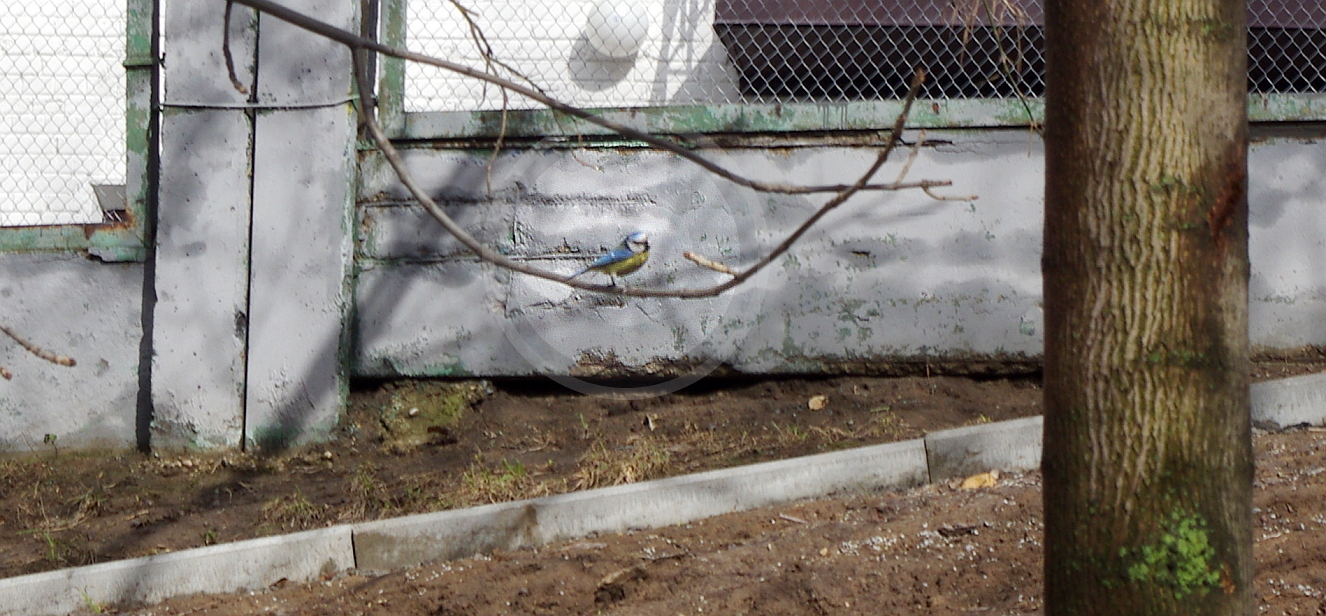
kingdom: Animalia
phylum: Chordata
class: Aves
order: Passeriformes
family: Paridae
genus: Cyanistes
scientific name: Cyanistes caeruleus
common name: Eurasian blue tit
